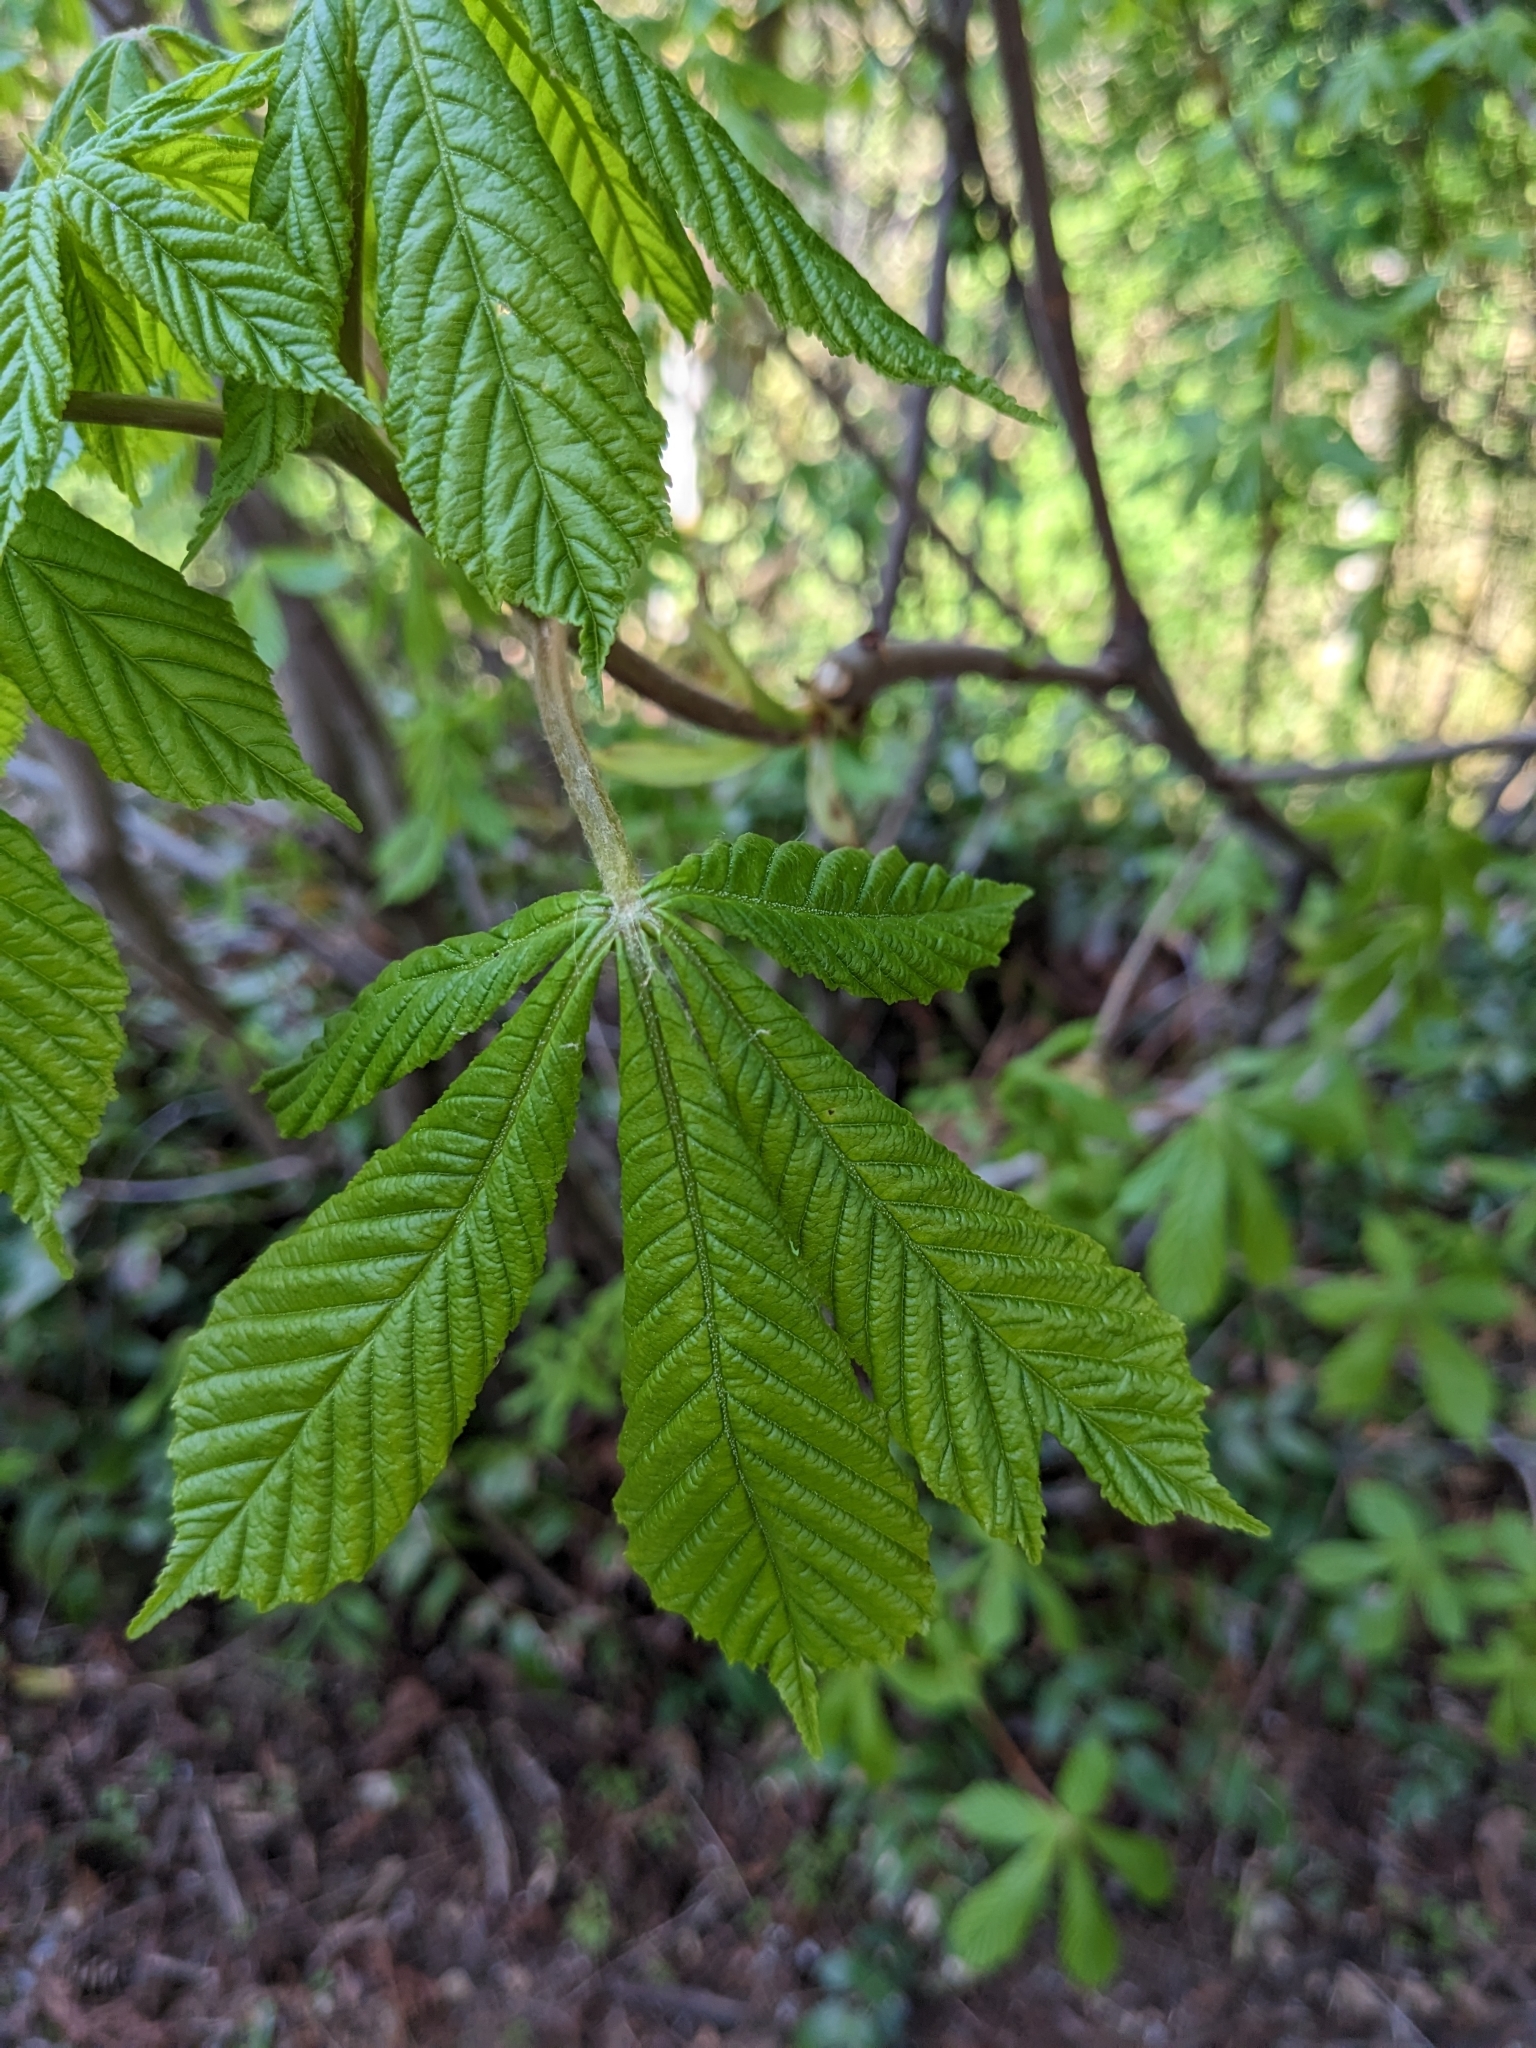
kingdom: Plantae
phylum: Tracheophyta
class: Magnoliopsida
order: Sapindales
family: Sapindaceae
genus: Aesculus
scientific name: Aesculus hippocastanum
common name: Horse-chestnut
